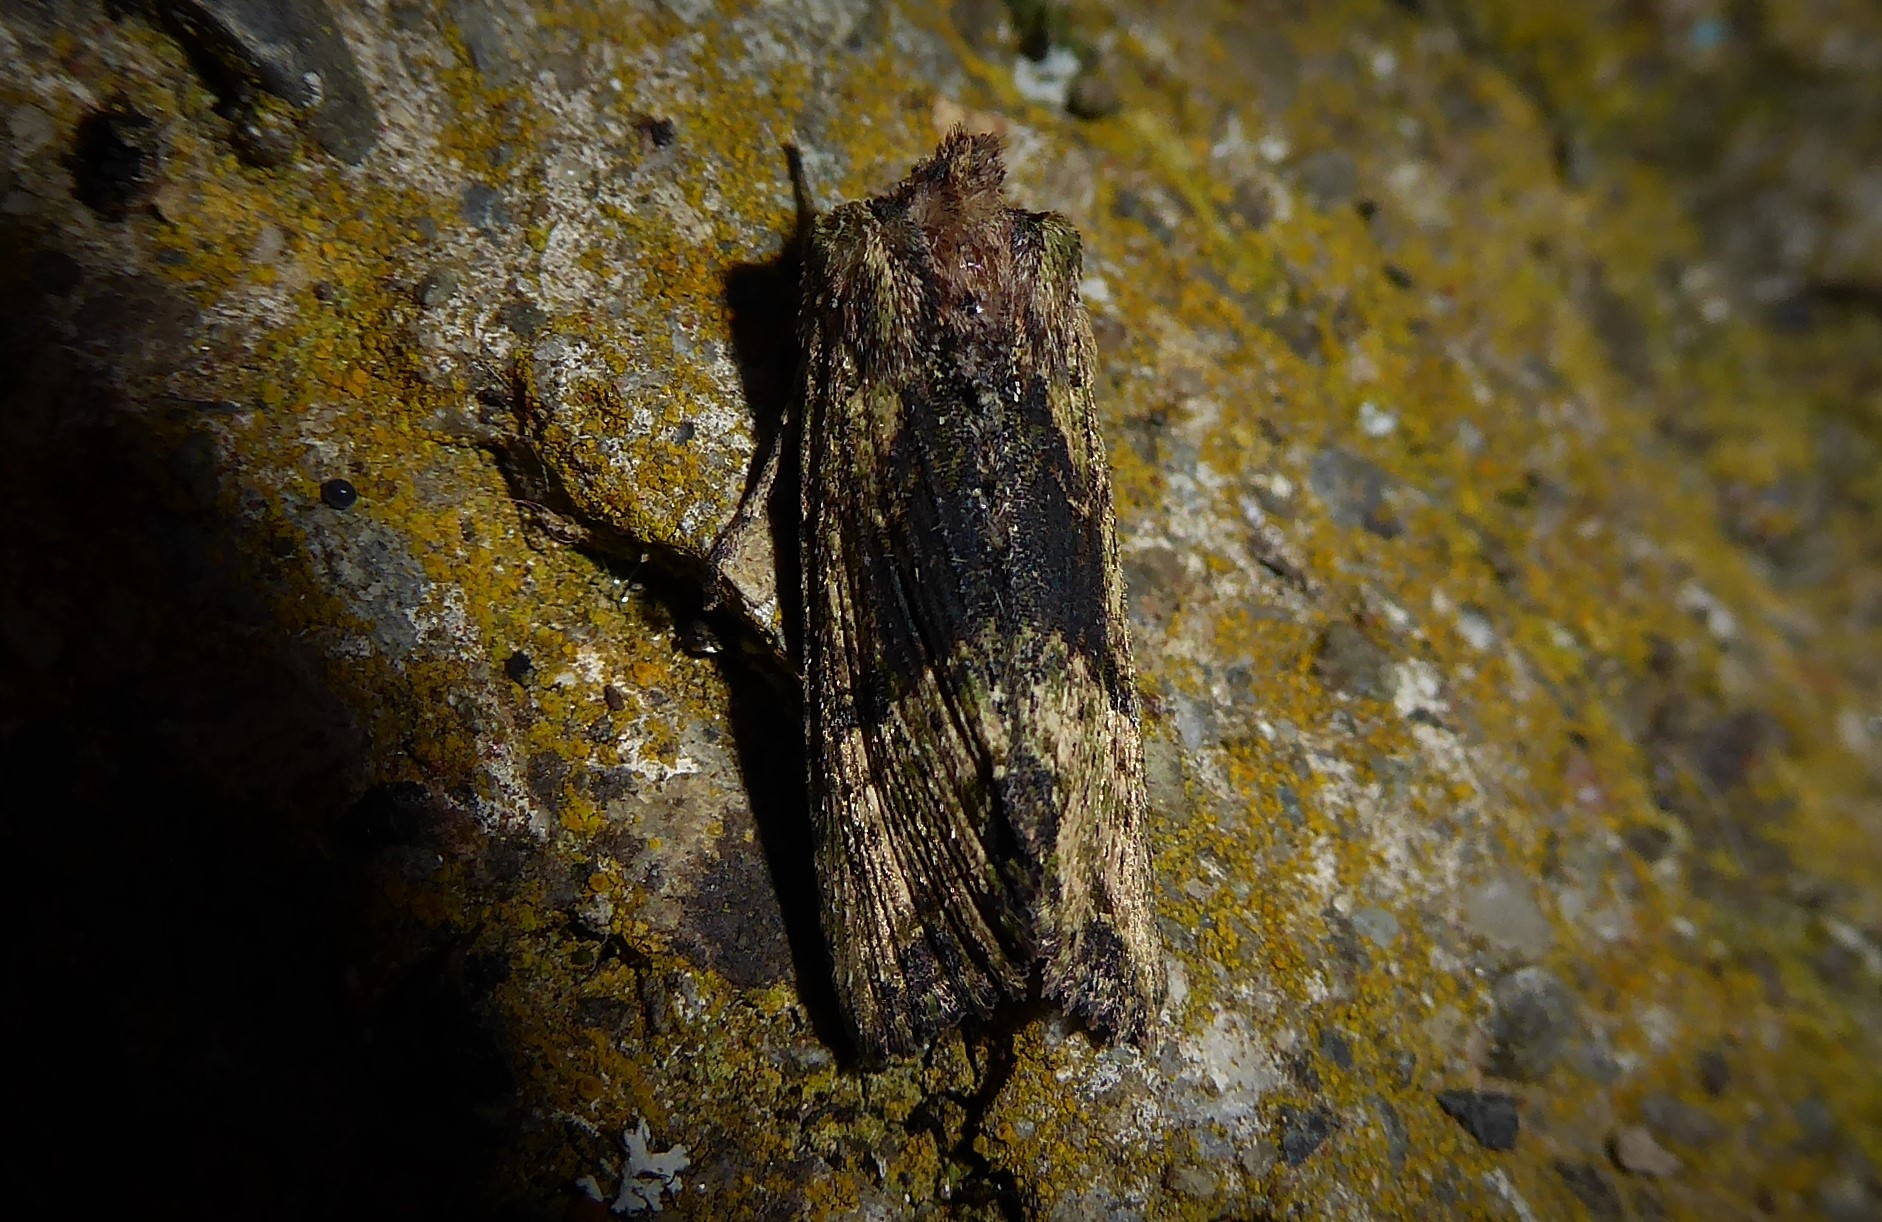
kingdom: Animalia
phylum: Arthropoda
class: Insecta
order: Lepidoptera
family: Noctuidae
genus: Meterana
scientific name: Meterana coeleno
